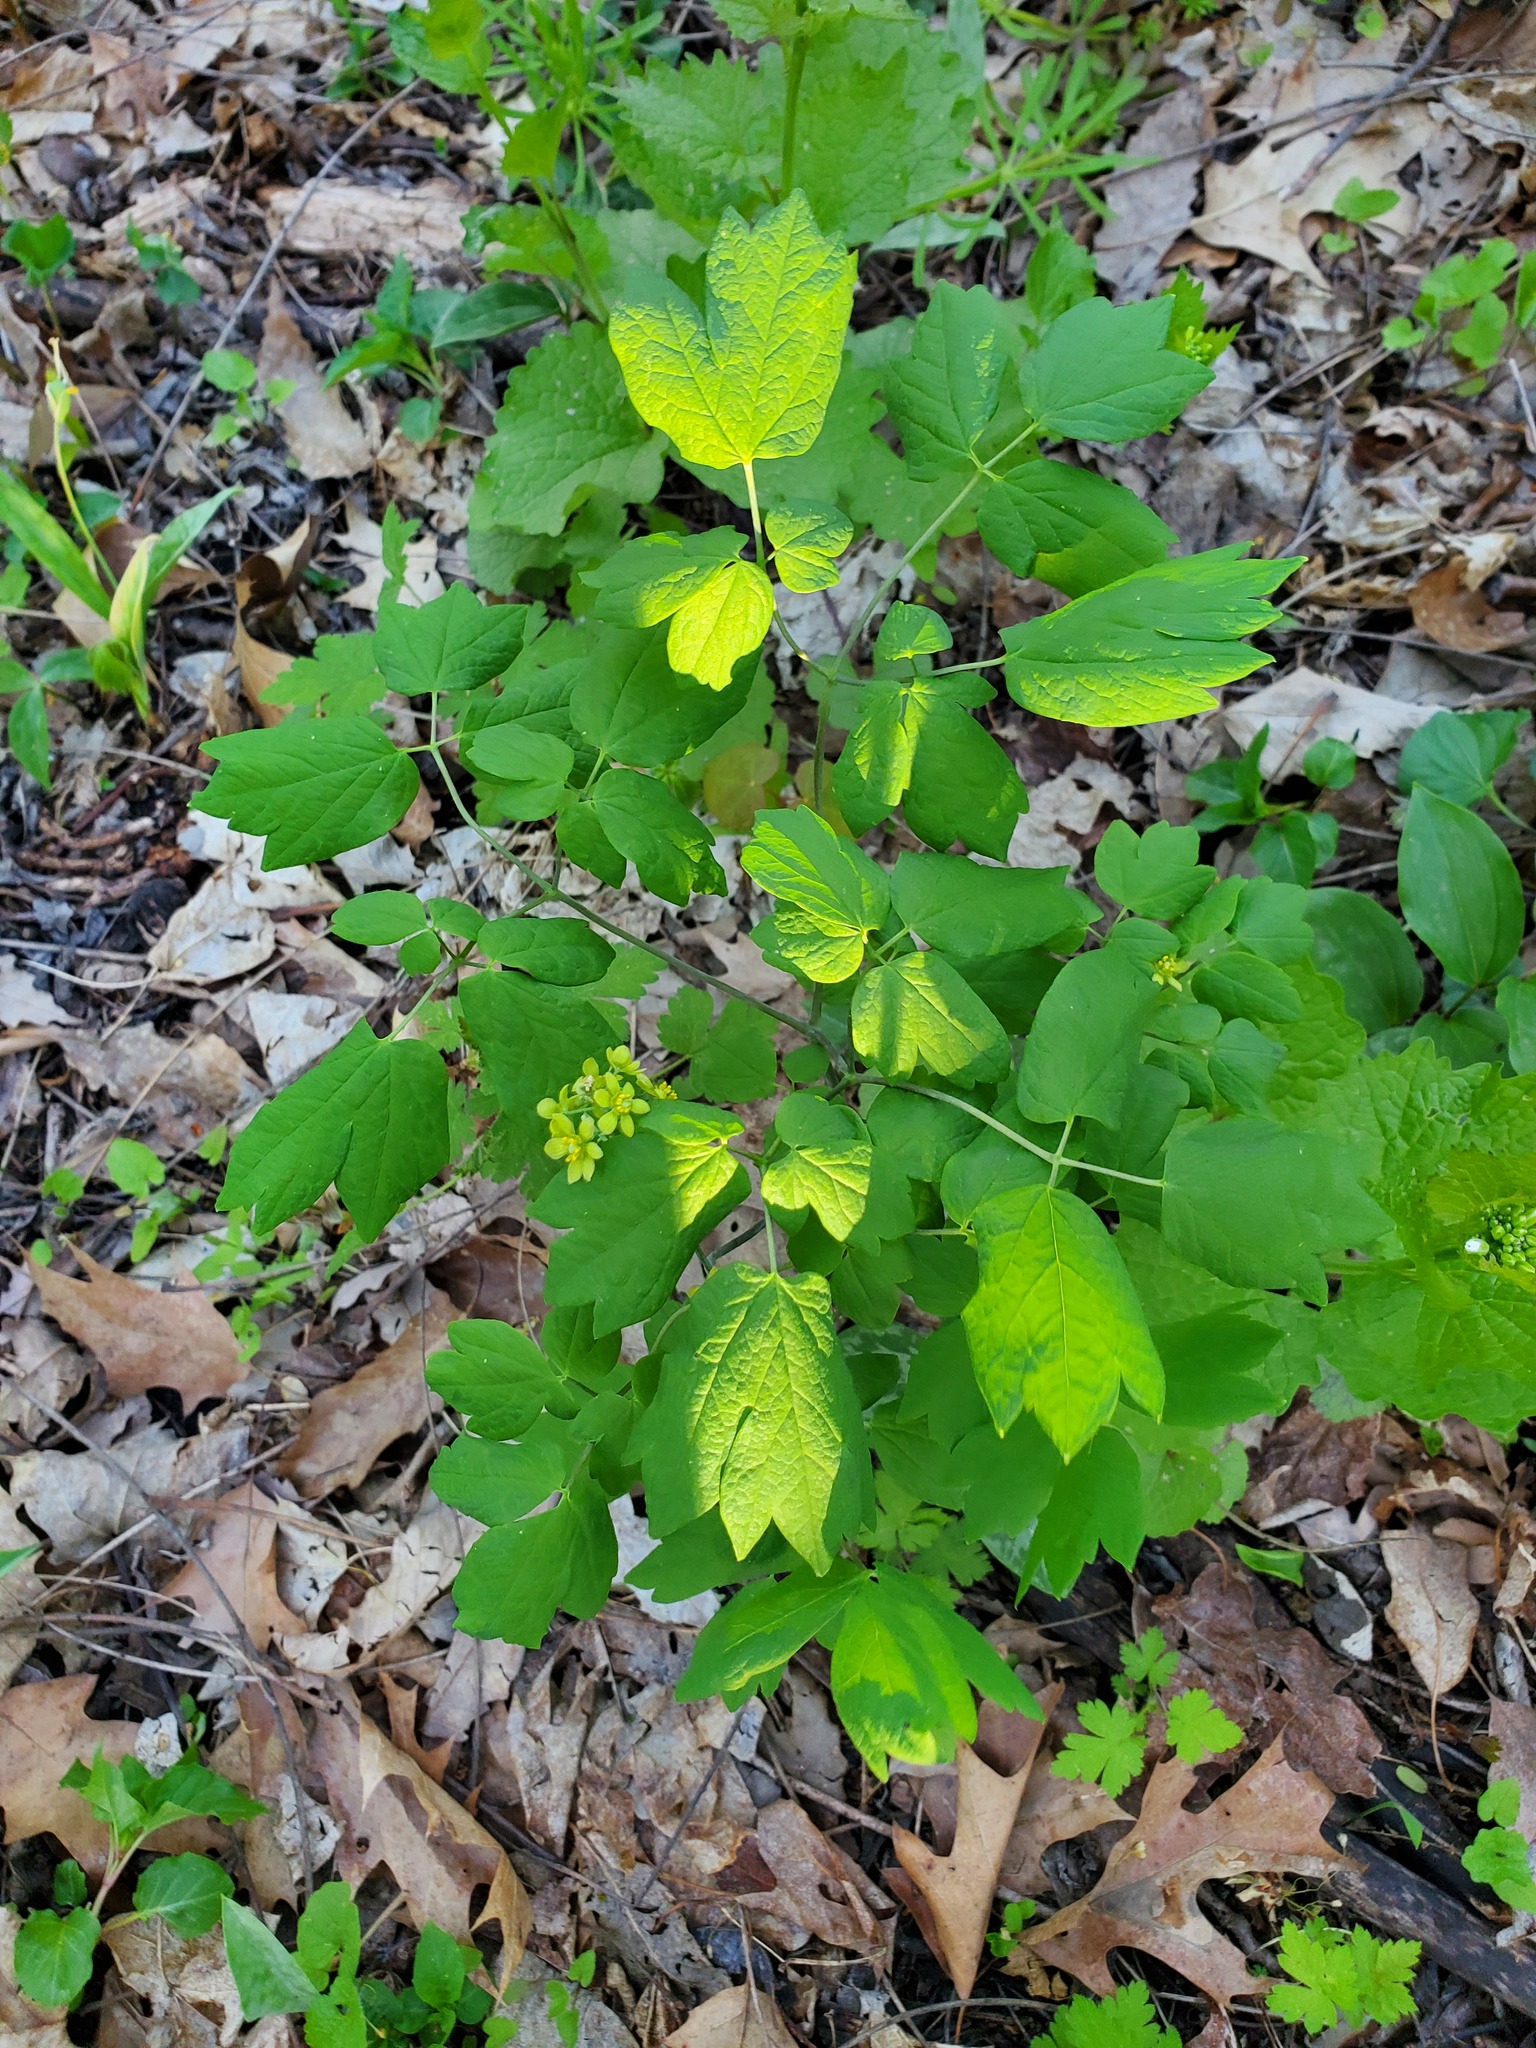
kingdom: Plantae
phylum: Tracheophyta
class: Magnoliopsida
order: Ranunculales
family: Berberidaceae
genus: Caulophyllum
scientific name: Caulophyllum thalictroides
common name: Blue cohosh
